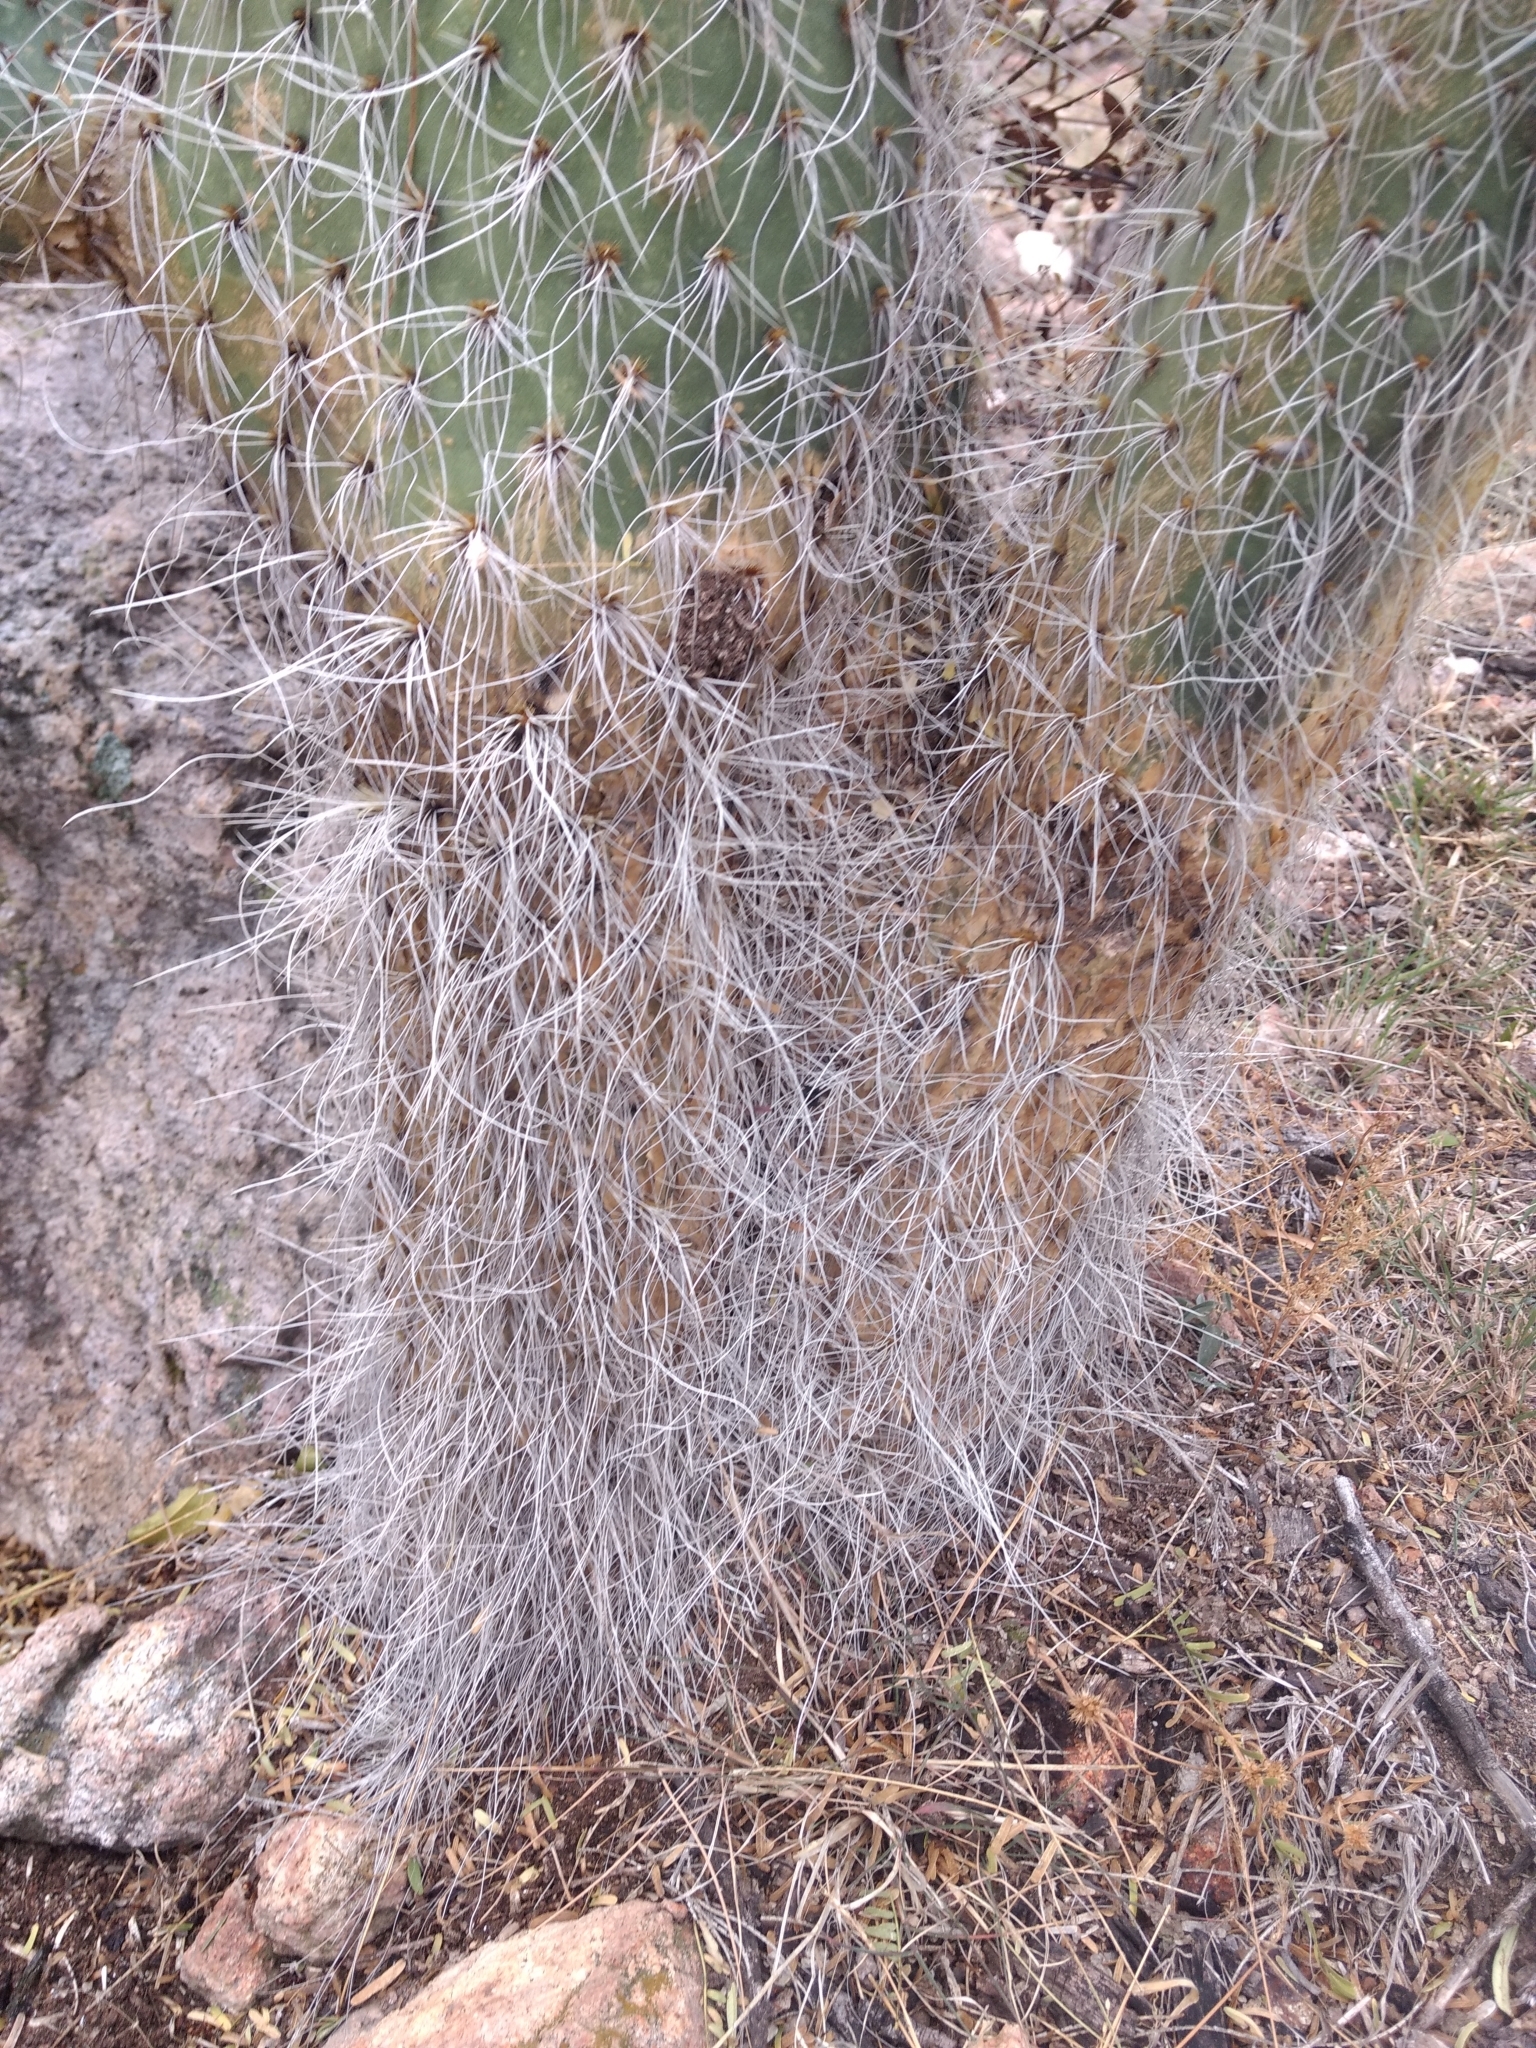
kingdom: Plantae
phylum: Tracheophyta
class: Magnoliopsida
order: Caryophyllales
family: Cactaceae
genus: Opuntia
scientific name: Opuntia leucotricha
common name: Arborescent pricklypear
